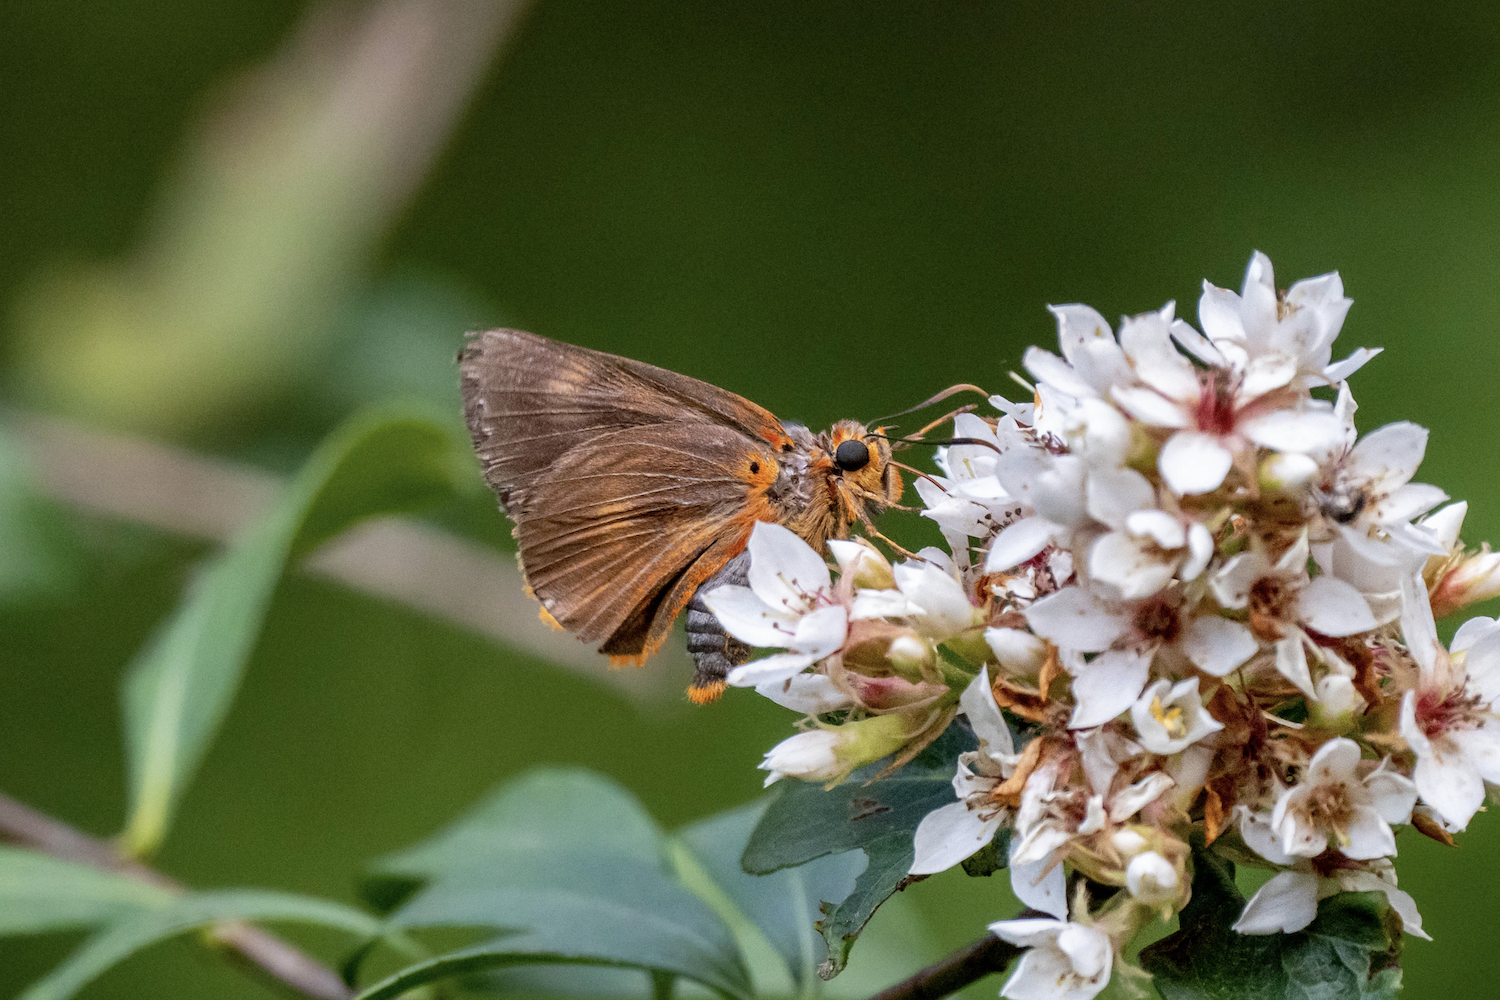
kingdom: Animalia
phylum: Arthropoda
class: Insecta
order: Lepidoptera
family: Hesperiidae
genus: Bibasis
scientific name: Bibasis oedipodea
